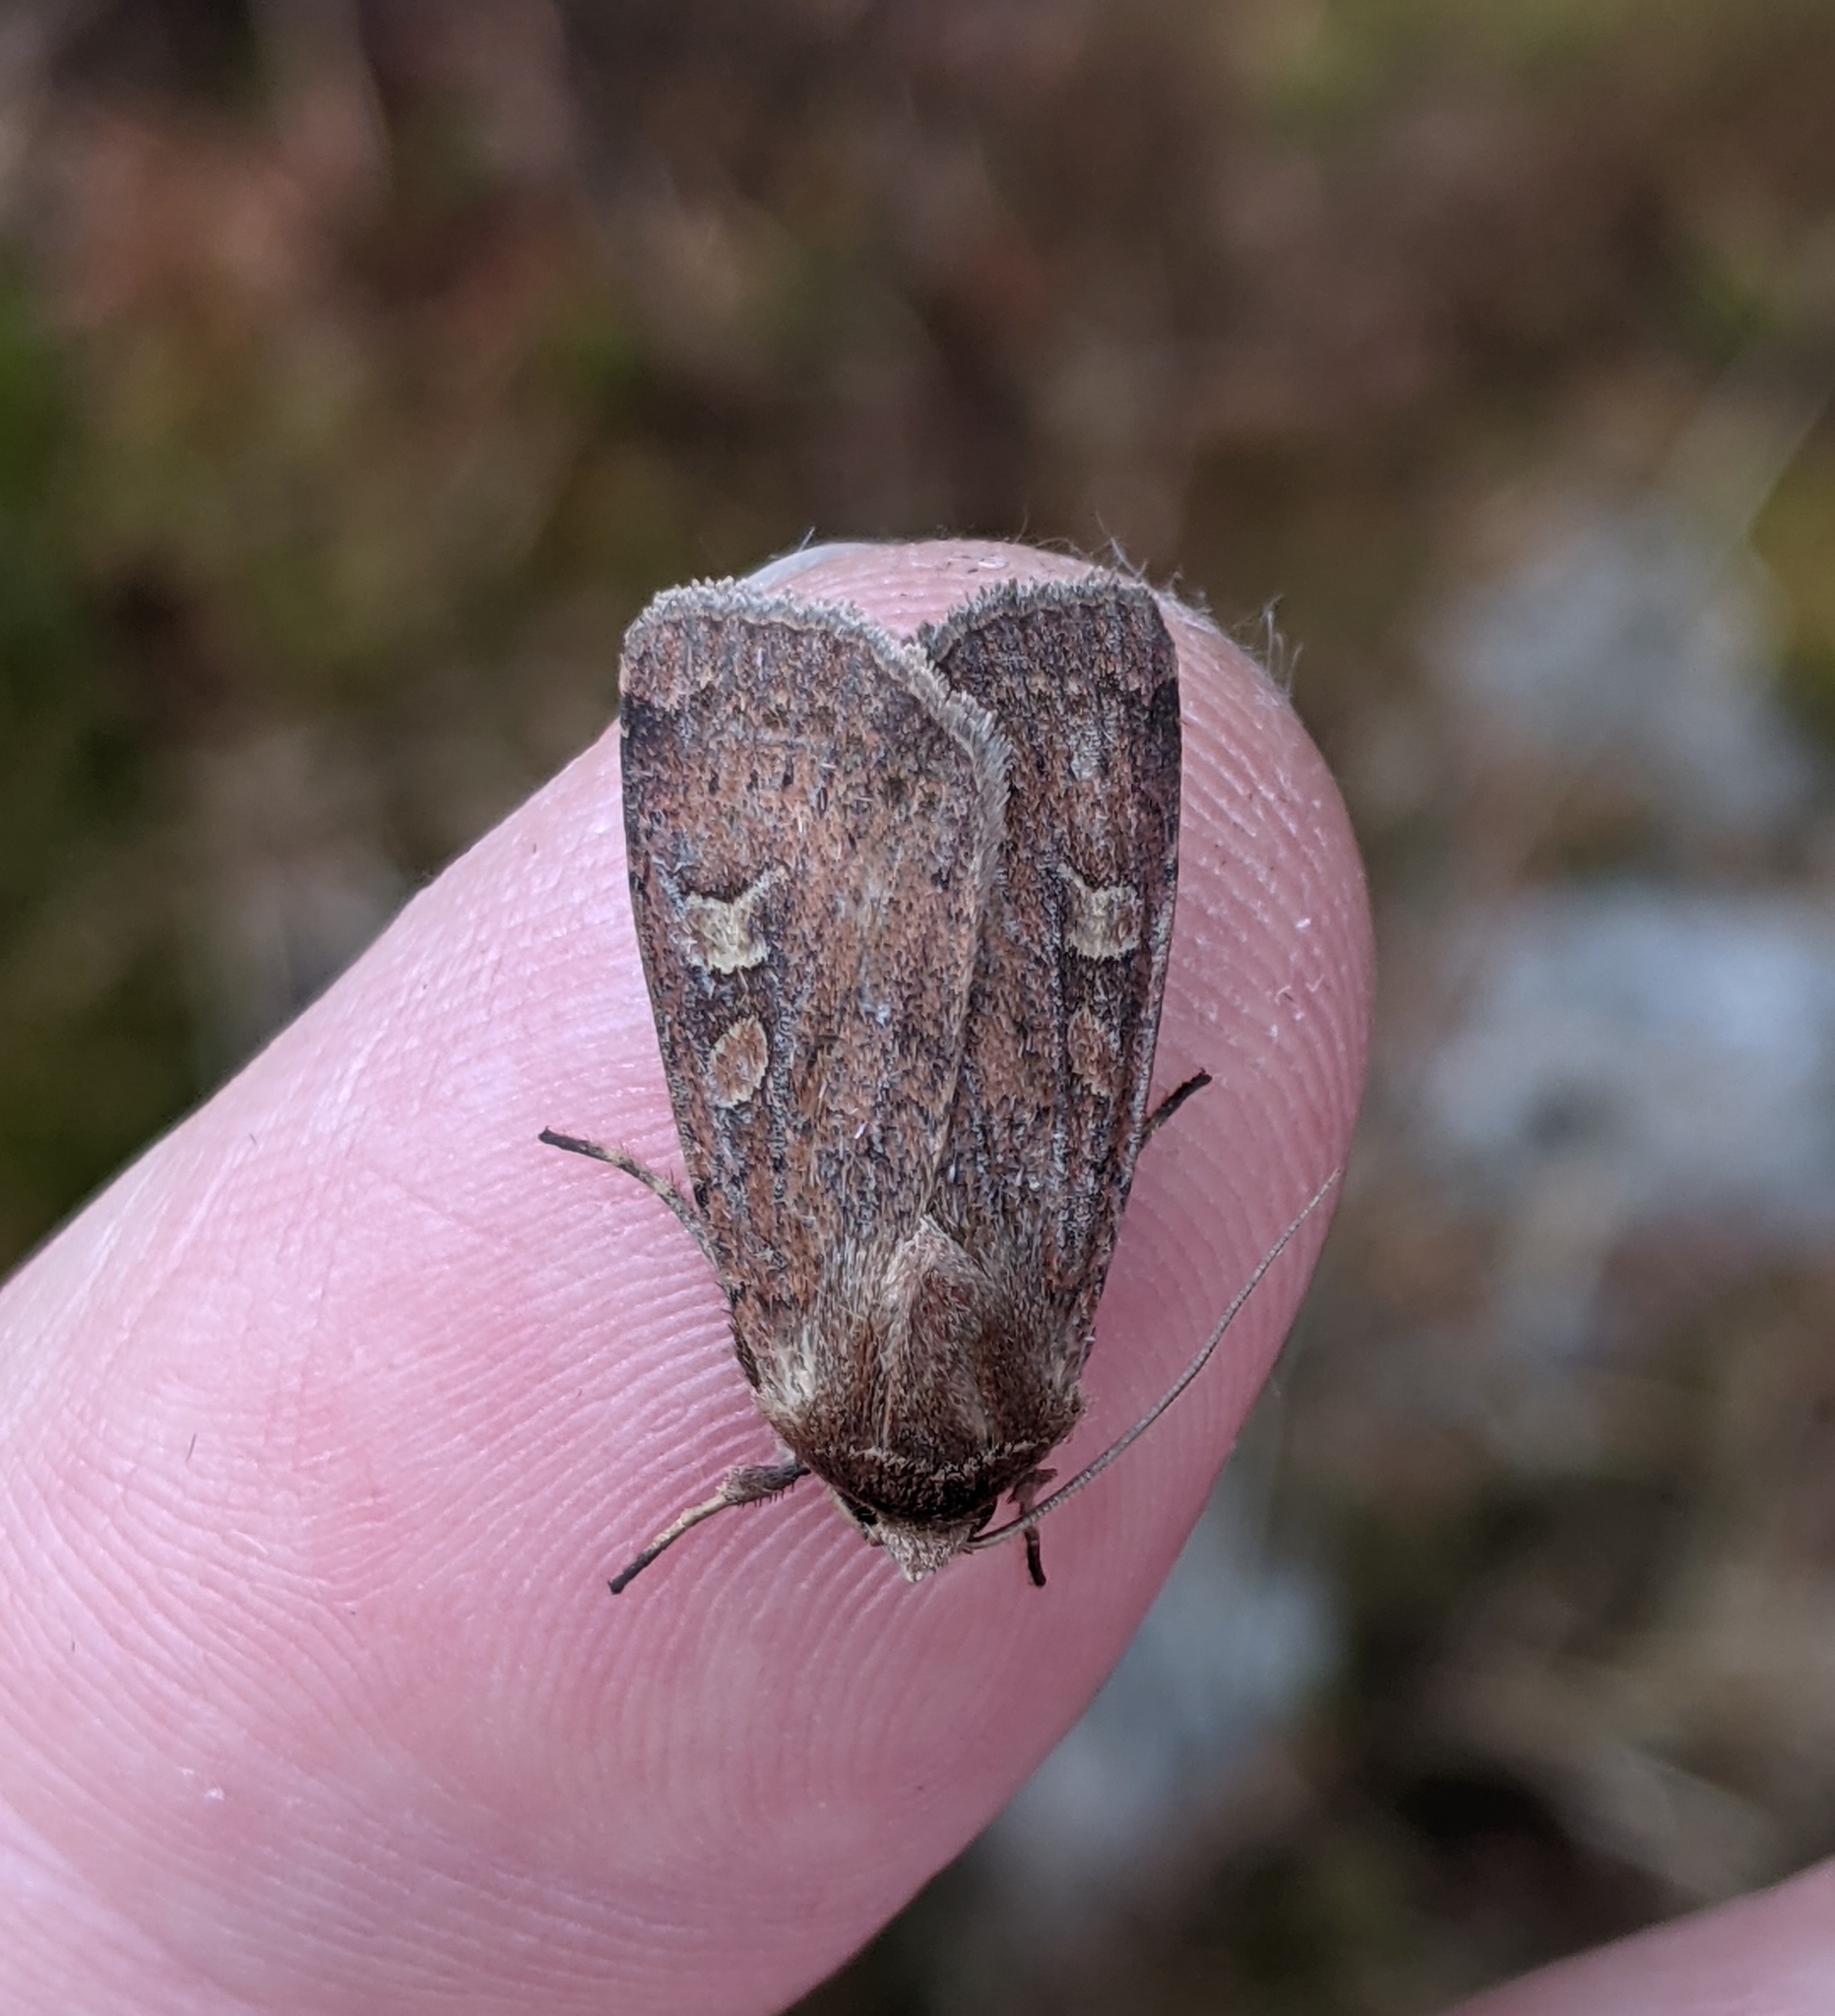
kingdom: Animalia
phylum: Arthropoda
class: Insecta
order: Lepidoptera
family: Noctuidae
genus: Xestia
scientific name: Xestia xanthographa
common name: Square-spot rustic
